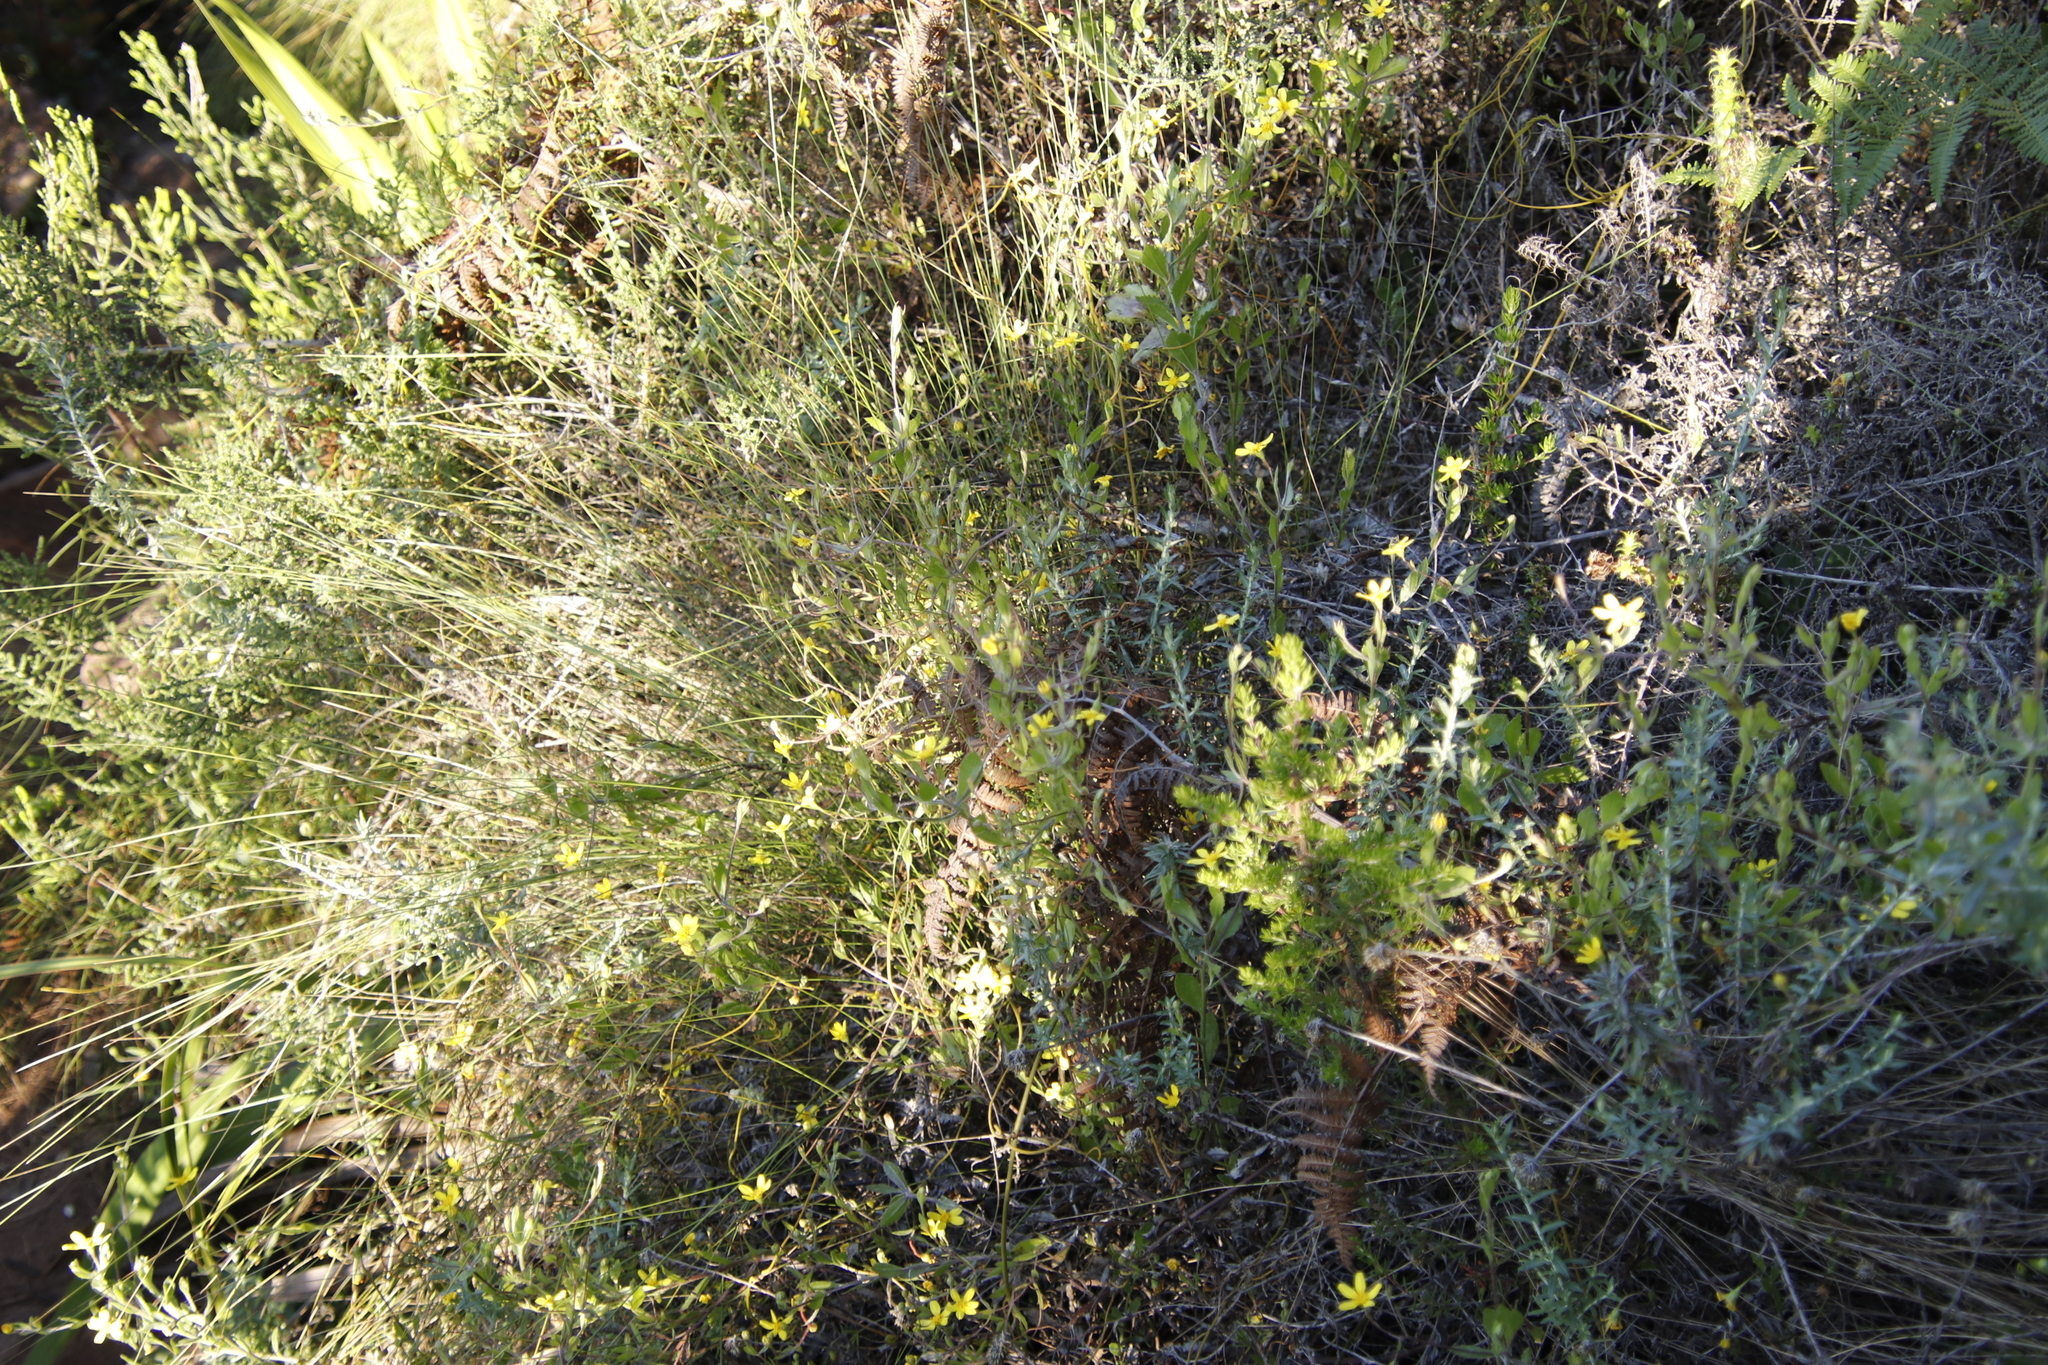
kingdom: Plantae
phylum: Tracheophyta
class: Magnoliopsida
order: Asterales
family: Asteraceae
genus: Osteospermum
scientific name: Osteospermum ciliatum
